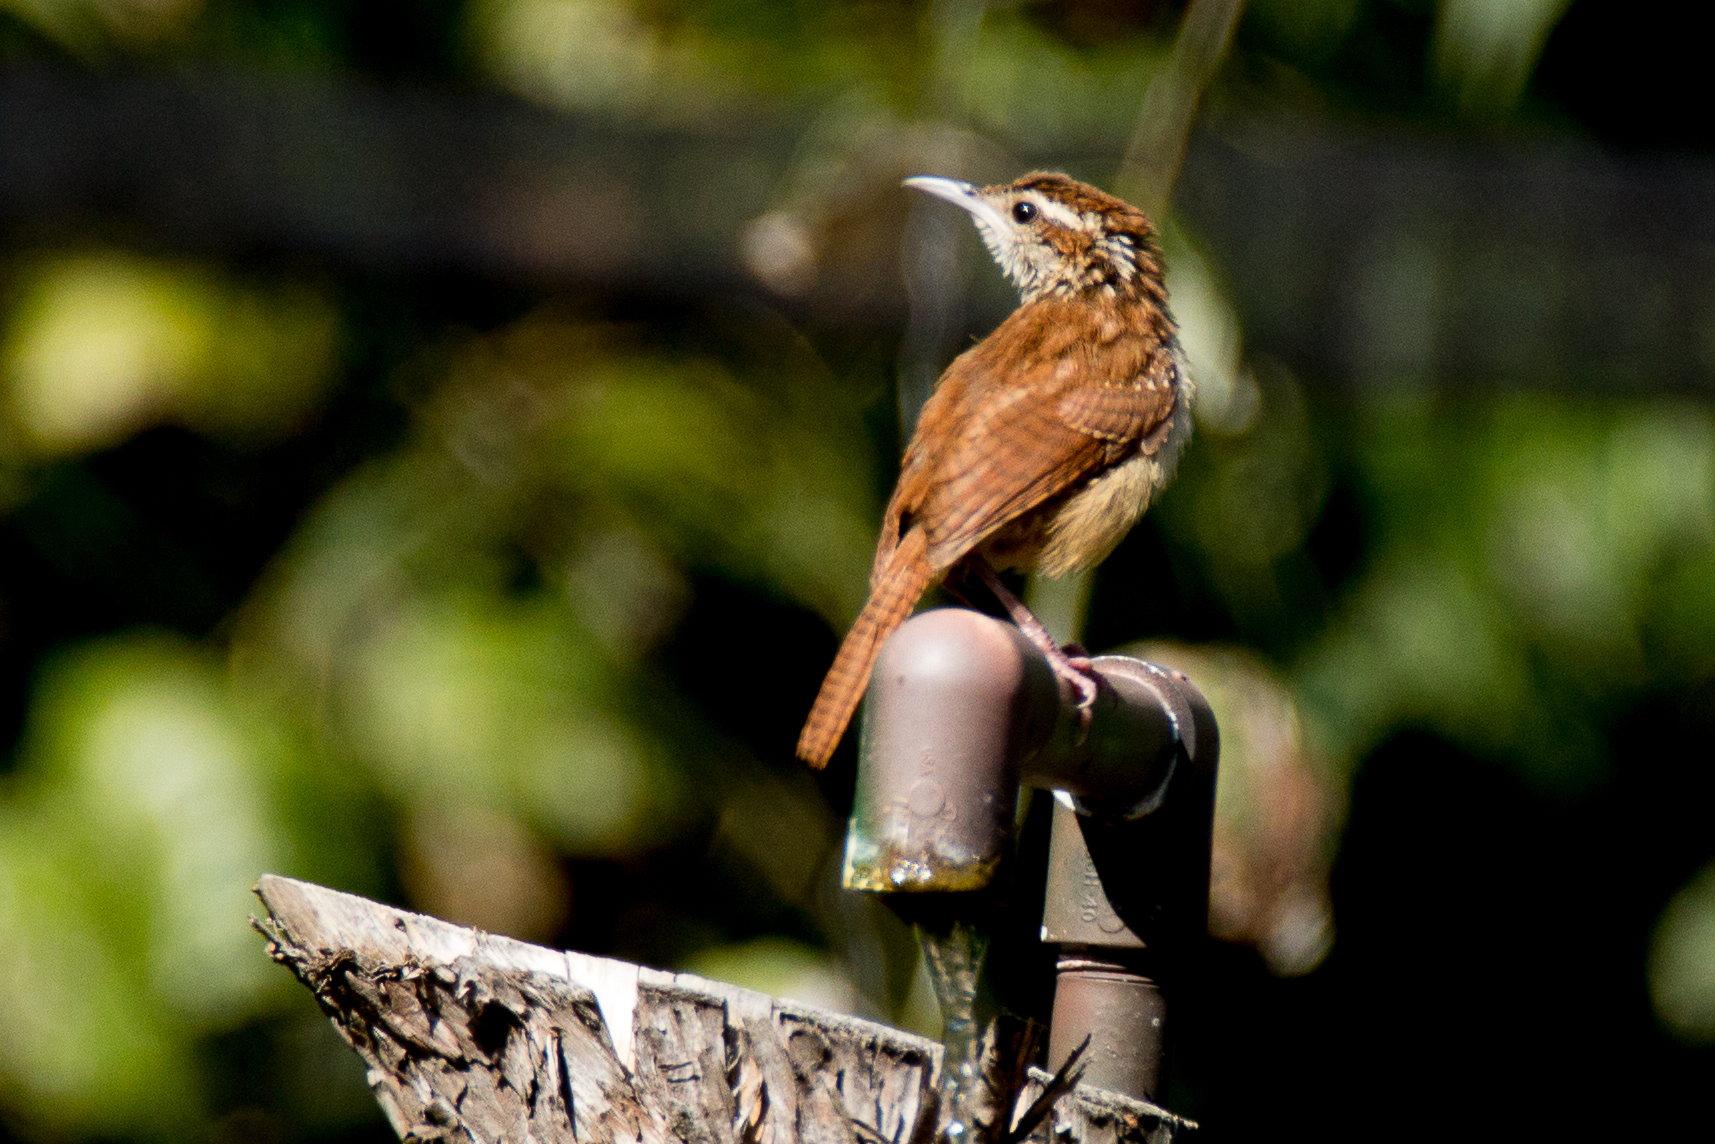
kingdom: Animalia
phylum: Chordata
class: Aves
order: Passeriformes
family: Troglodytidae
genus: Thryothorus
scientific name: Thryothorus ludovicianus
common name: Carolina wren
